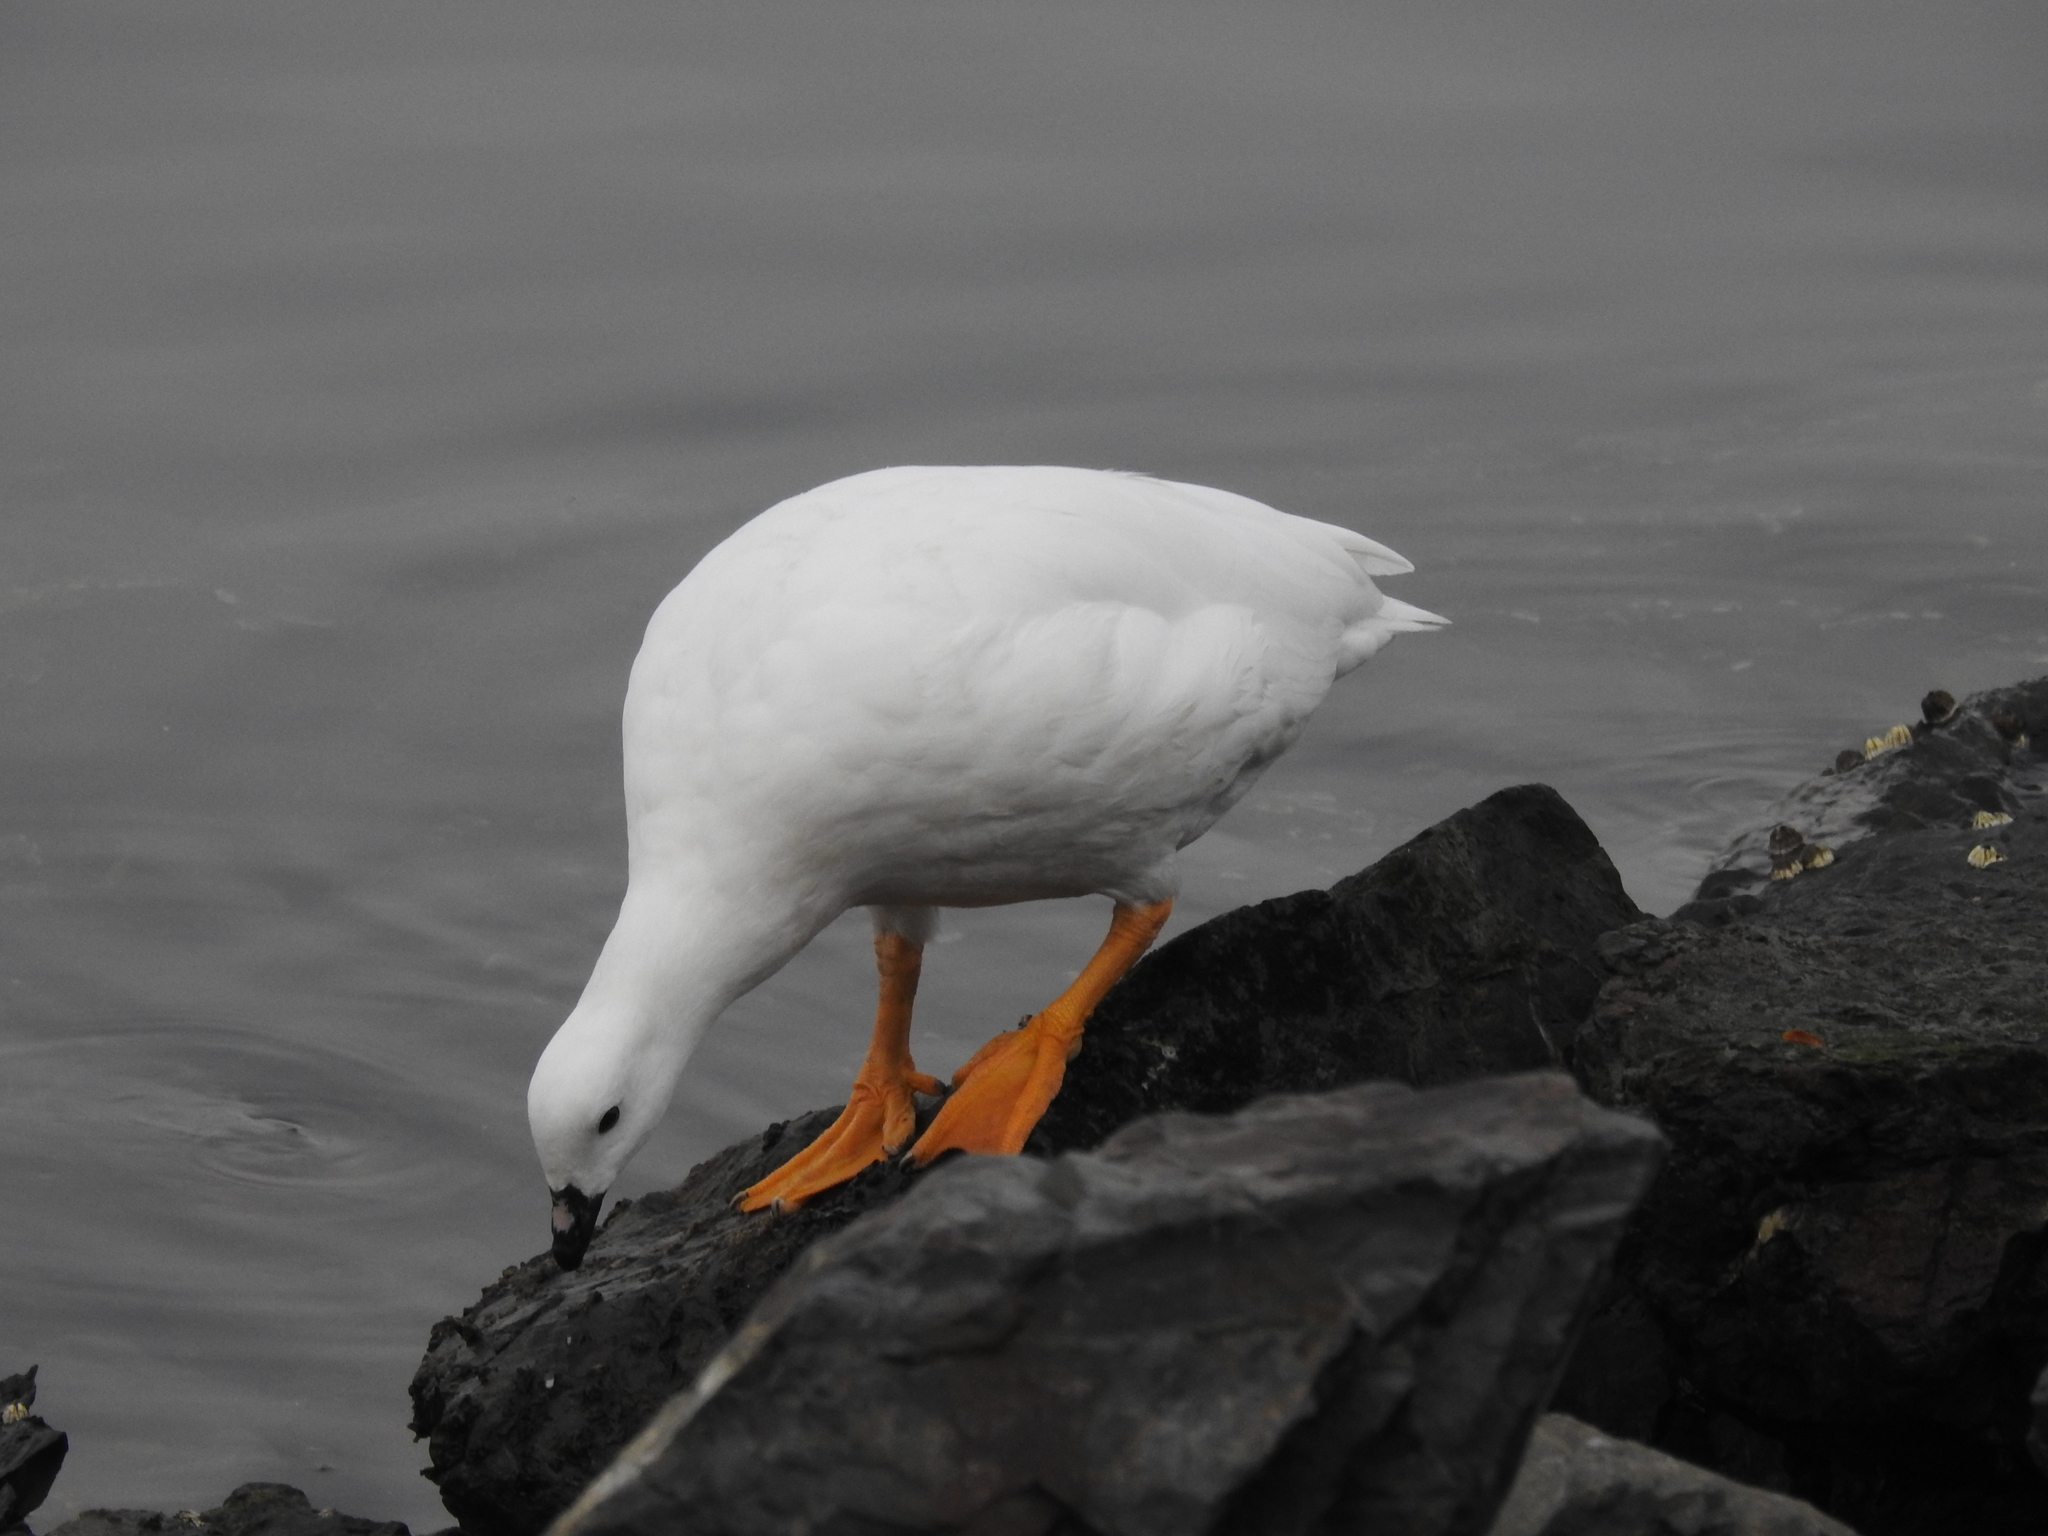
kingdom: Animalia
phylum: Chordata
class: Aves
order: Anseriformes
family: Anatidae
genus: Chloephaga
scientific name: Chloephaga hybrida
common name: Kelp goose
